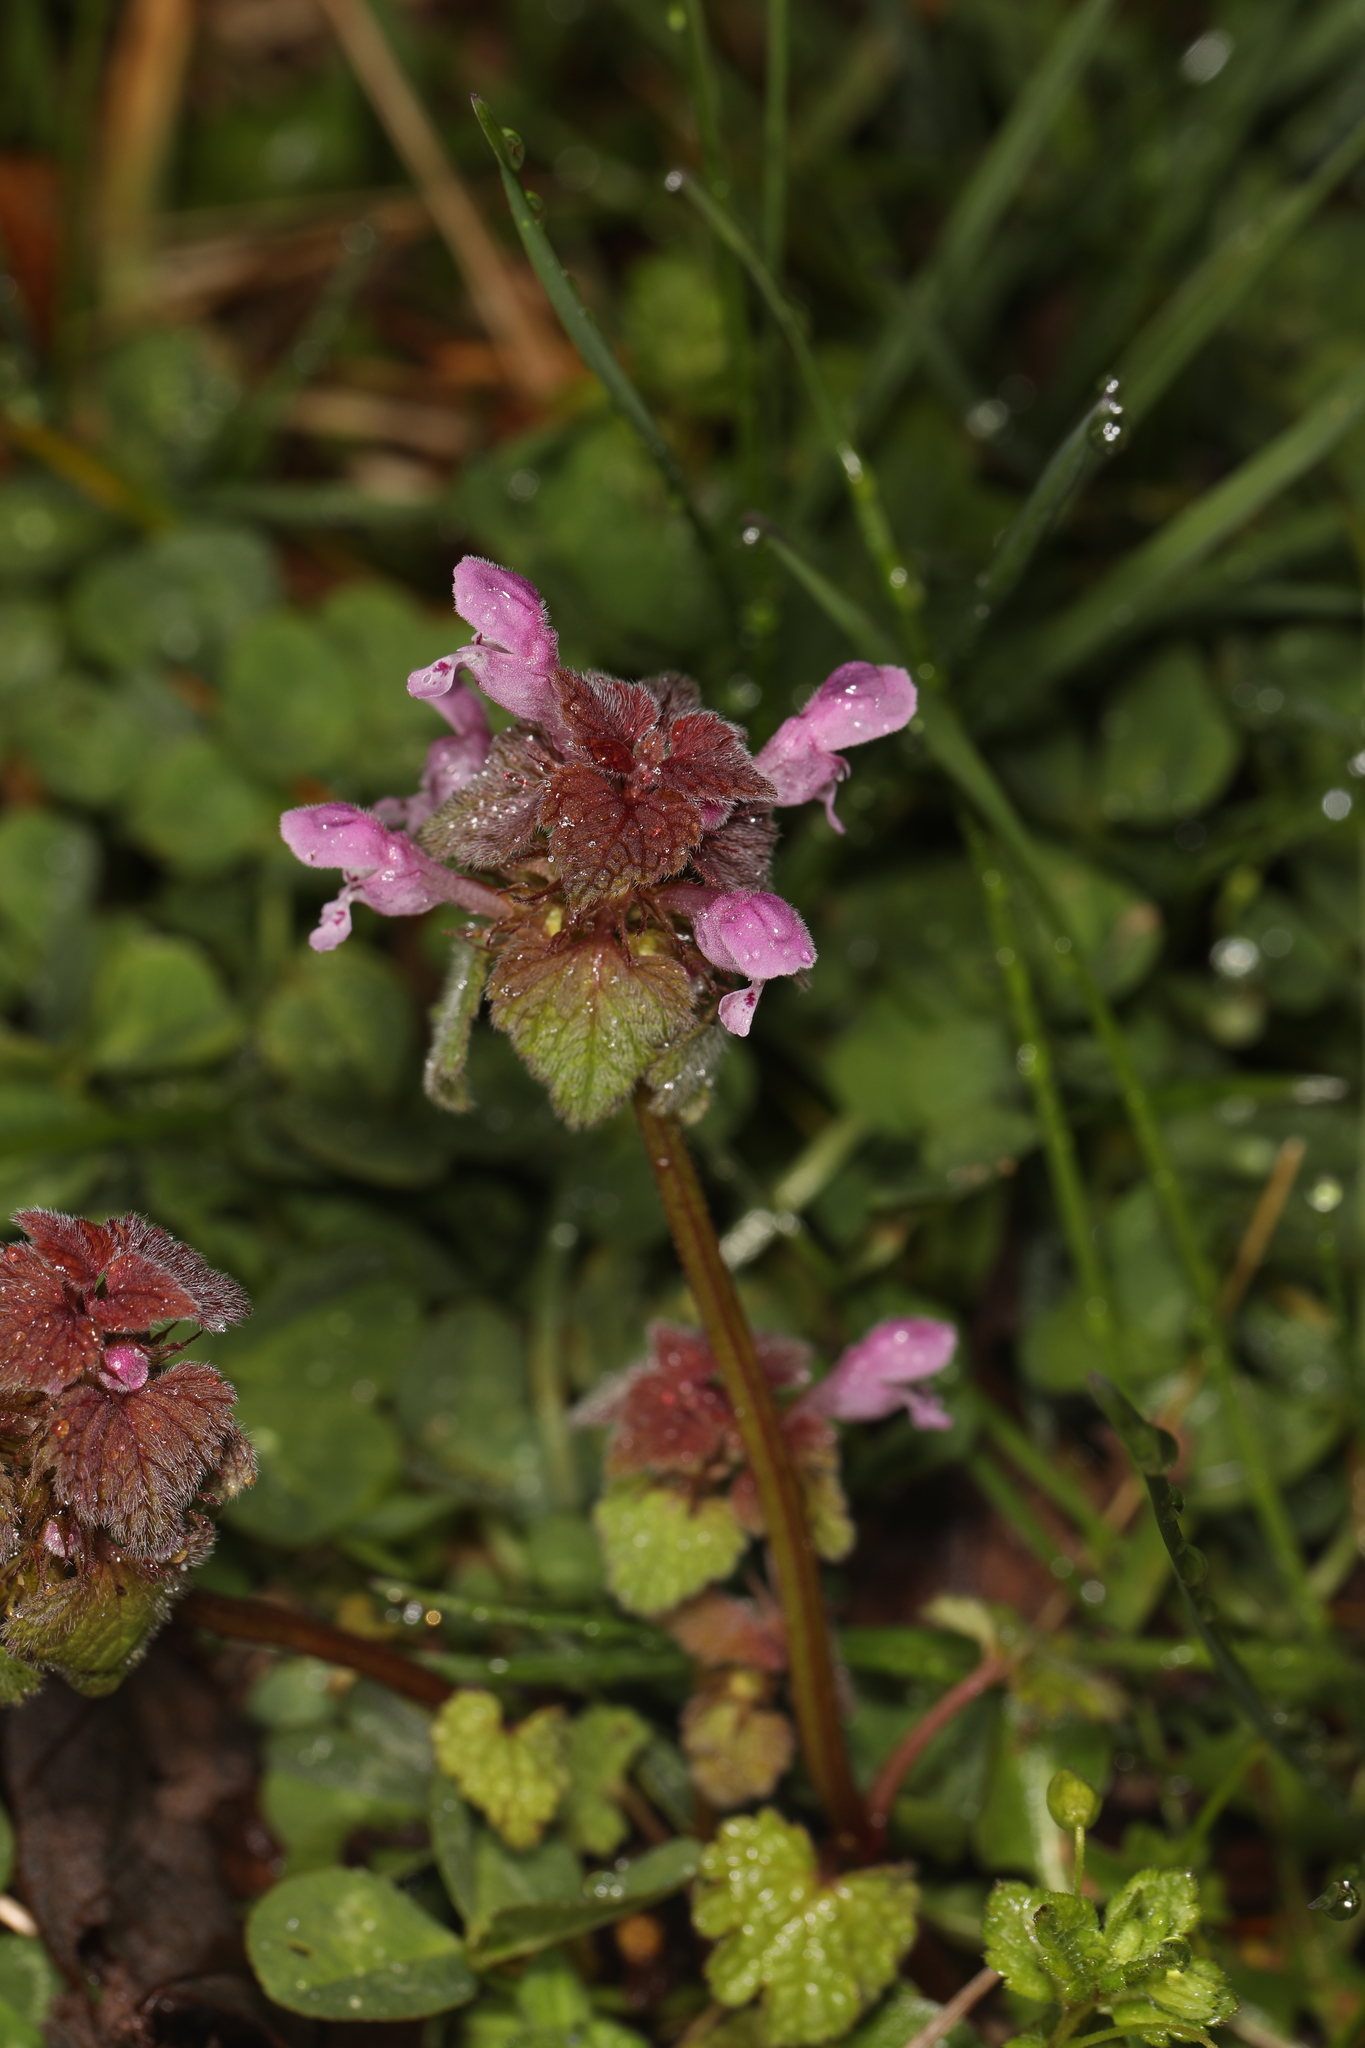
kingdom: Plantae
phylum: Tracheophyta
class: Magnoliopsida
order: Lamiales
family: Lamiaceae
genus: Lamium
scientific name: Lamium purpureum
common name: Red dead-nettle
